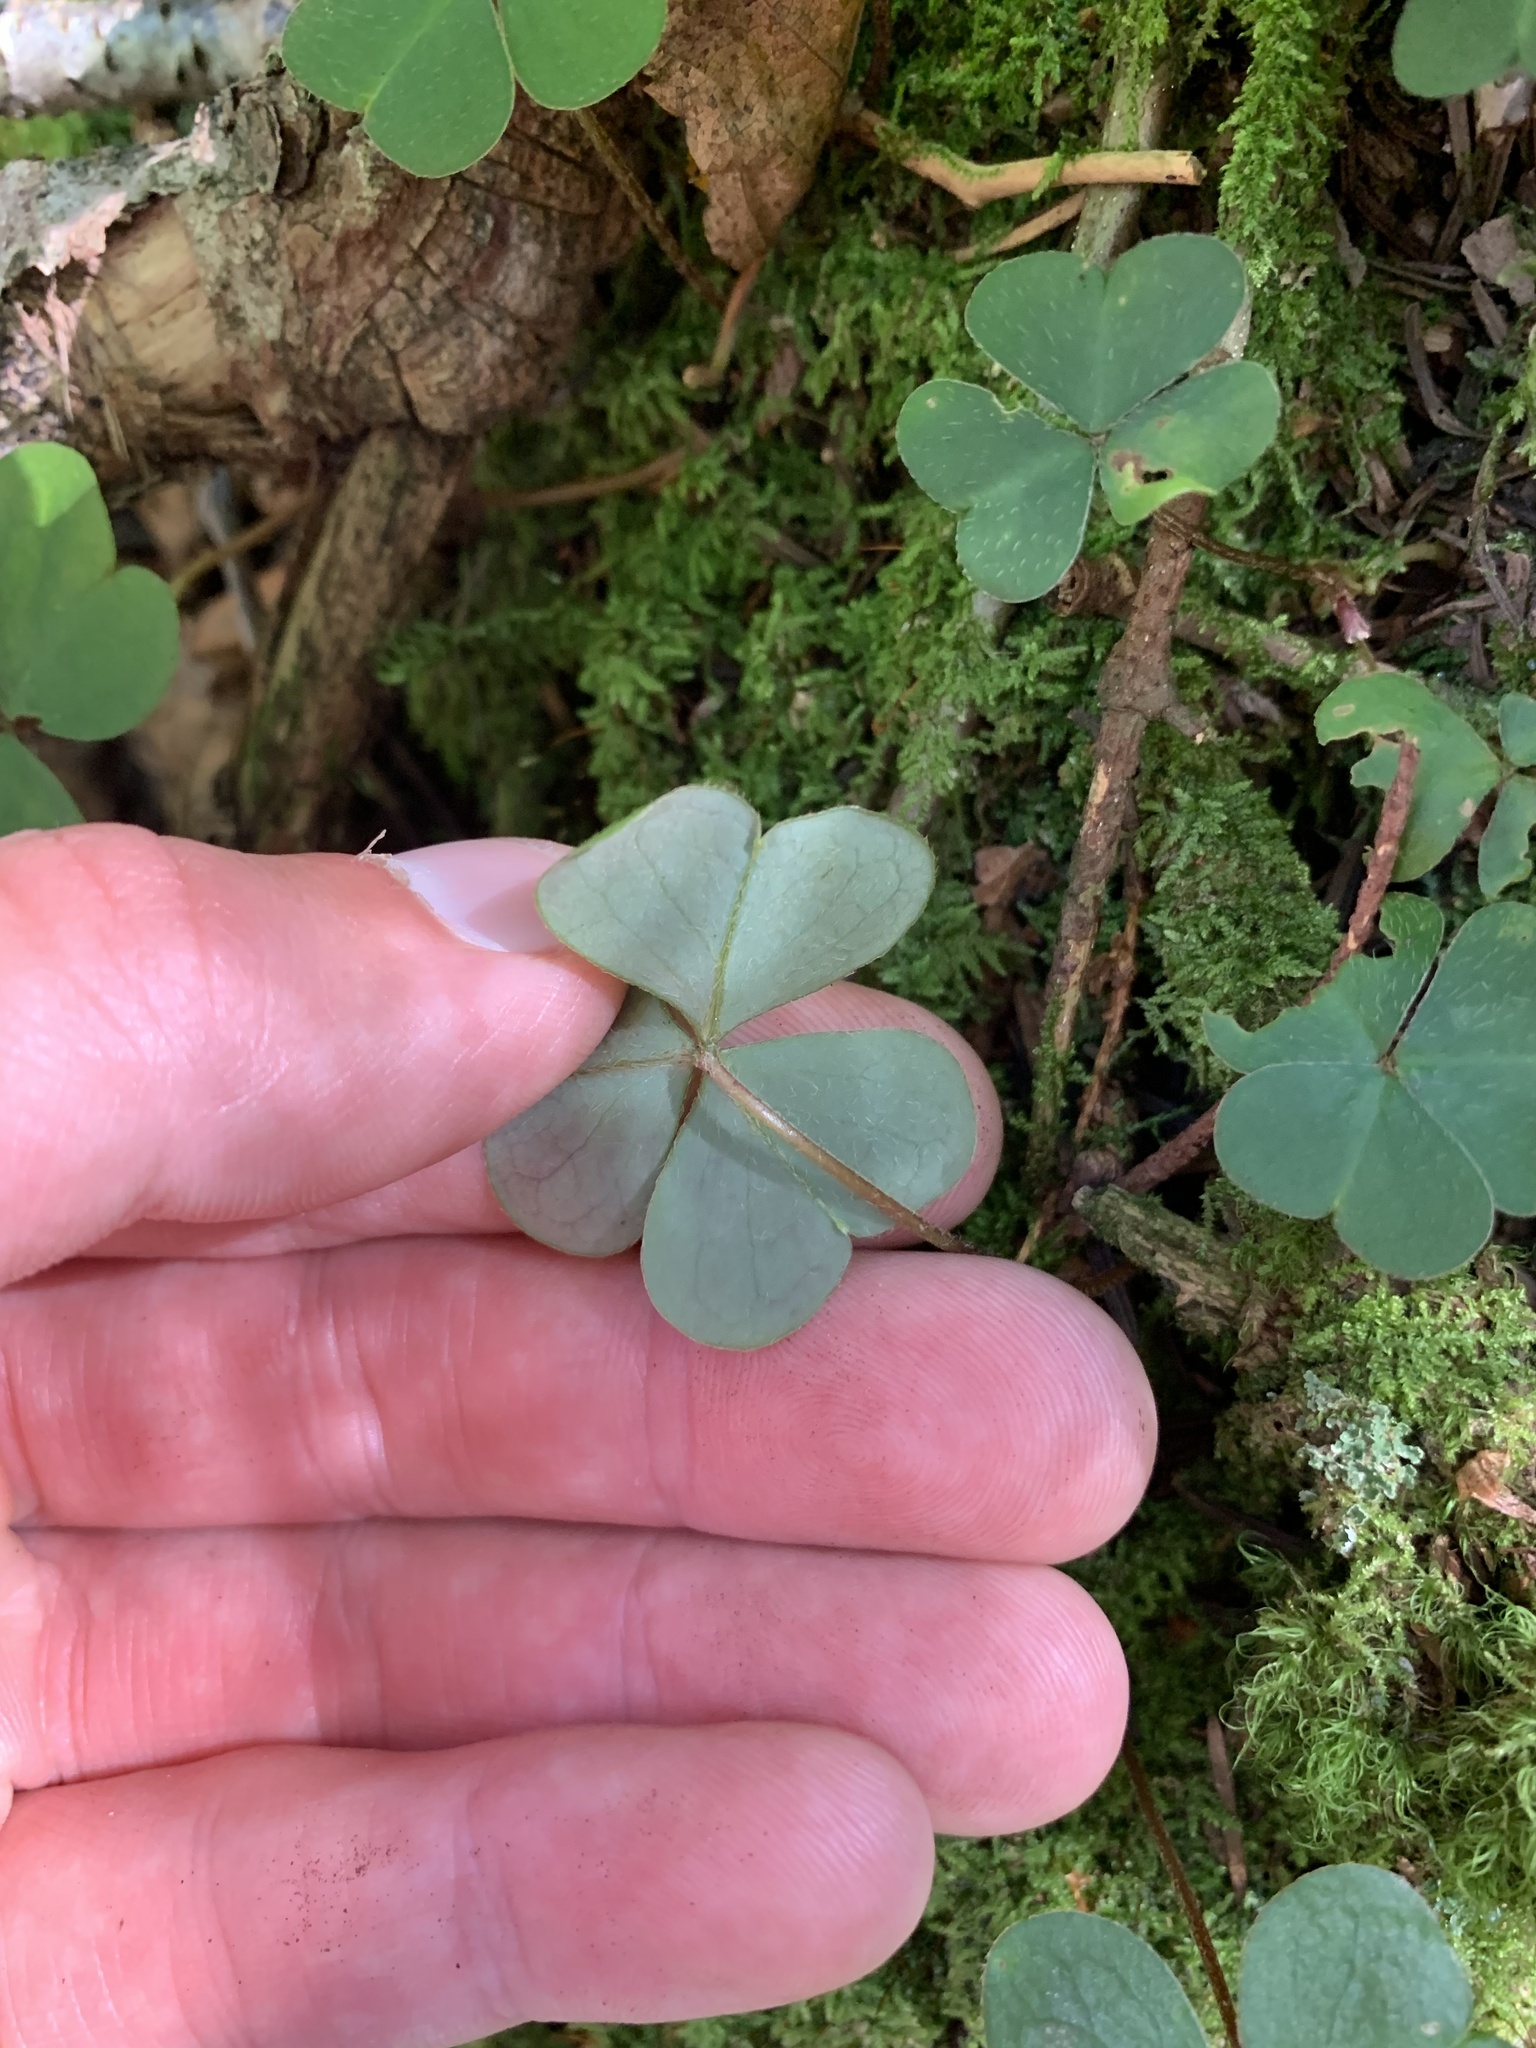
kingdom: Plantae
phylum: Tracheophyta
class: Magnoliopsida
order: Oxalidales
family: Oxalidaceae
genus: Oxalis
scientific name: Oxalis montana
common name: American wood-sorrel
